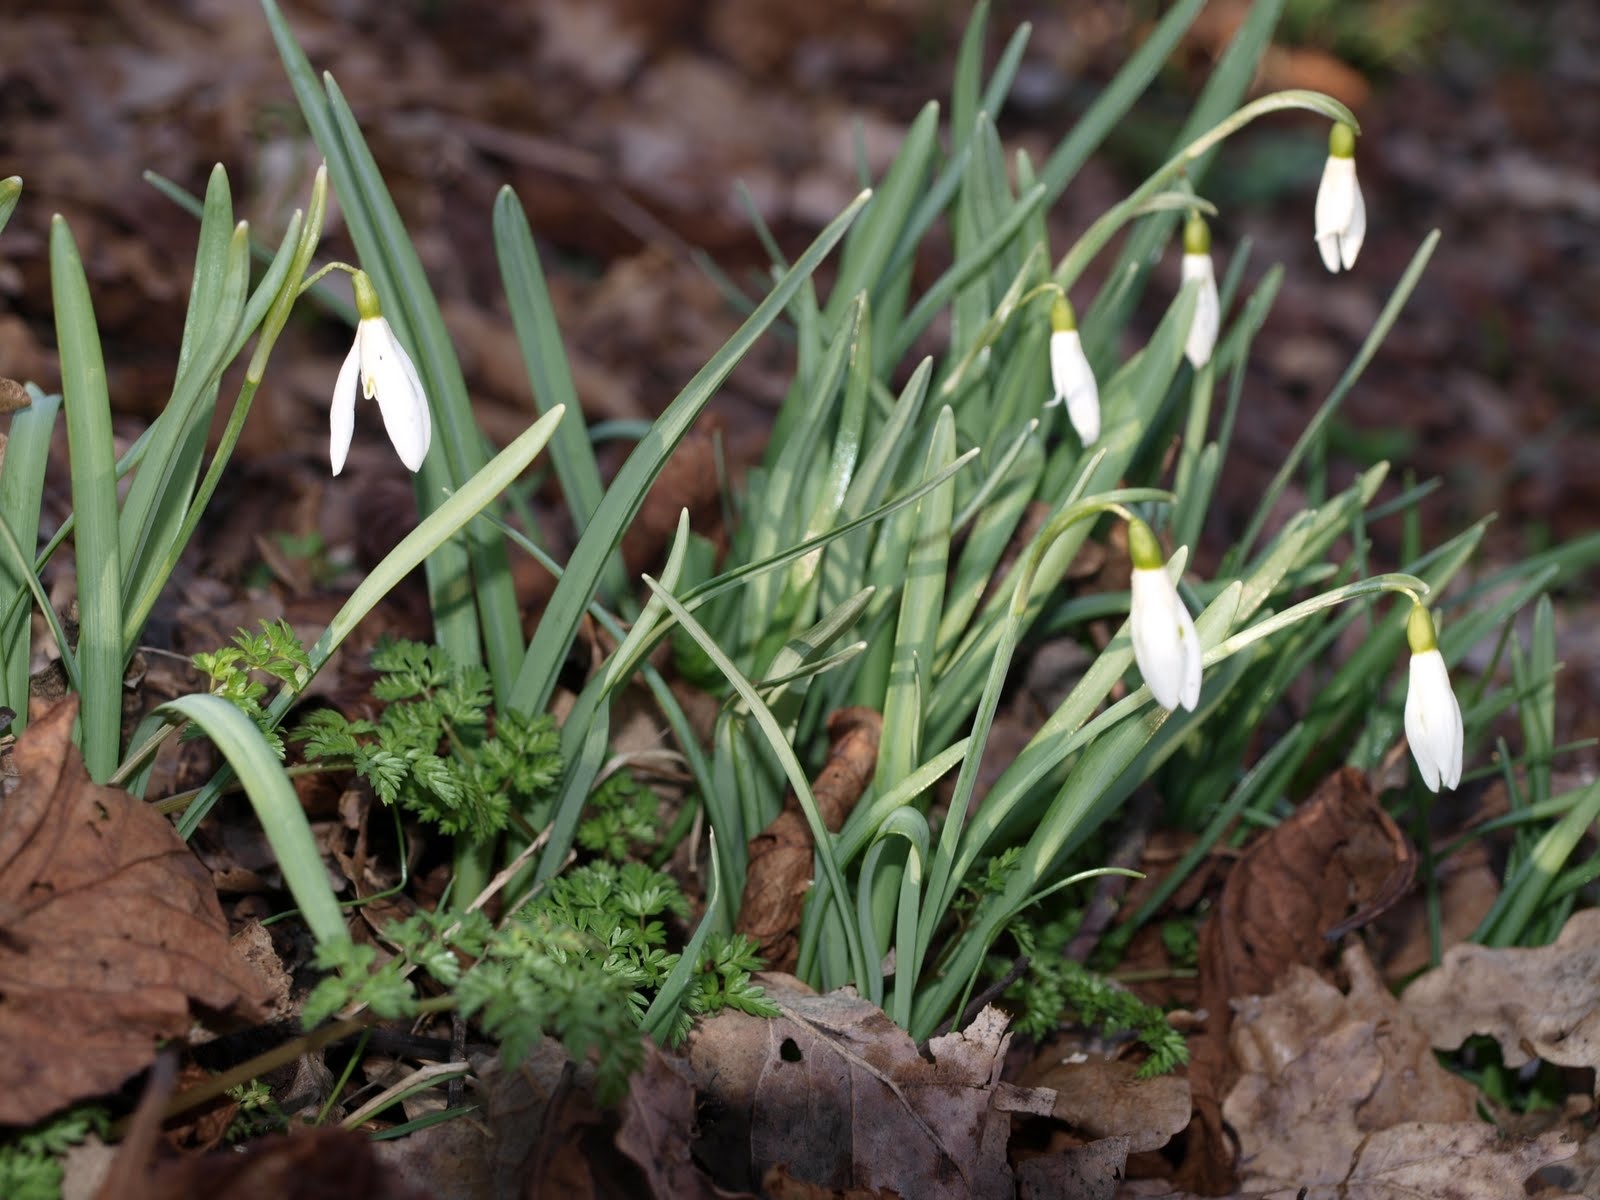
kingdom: Plantae
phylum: Tracheophyta
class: Liliopsida
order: Asparagales
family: Amaryllidaceae
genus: Galanthus
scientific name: Galanthus nivalis
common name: Snowdrop
